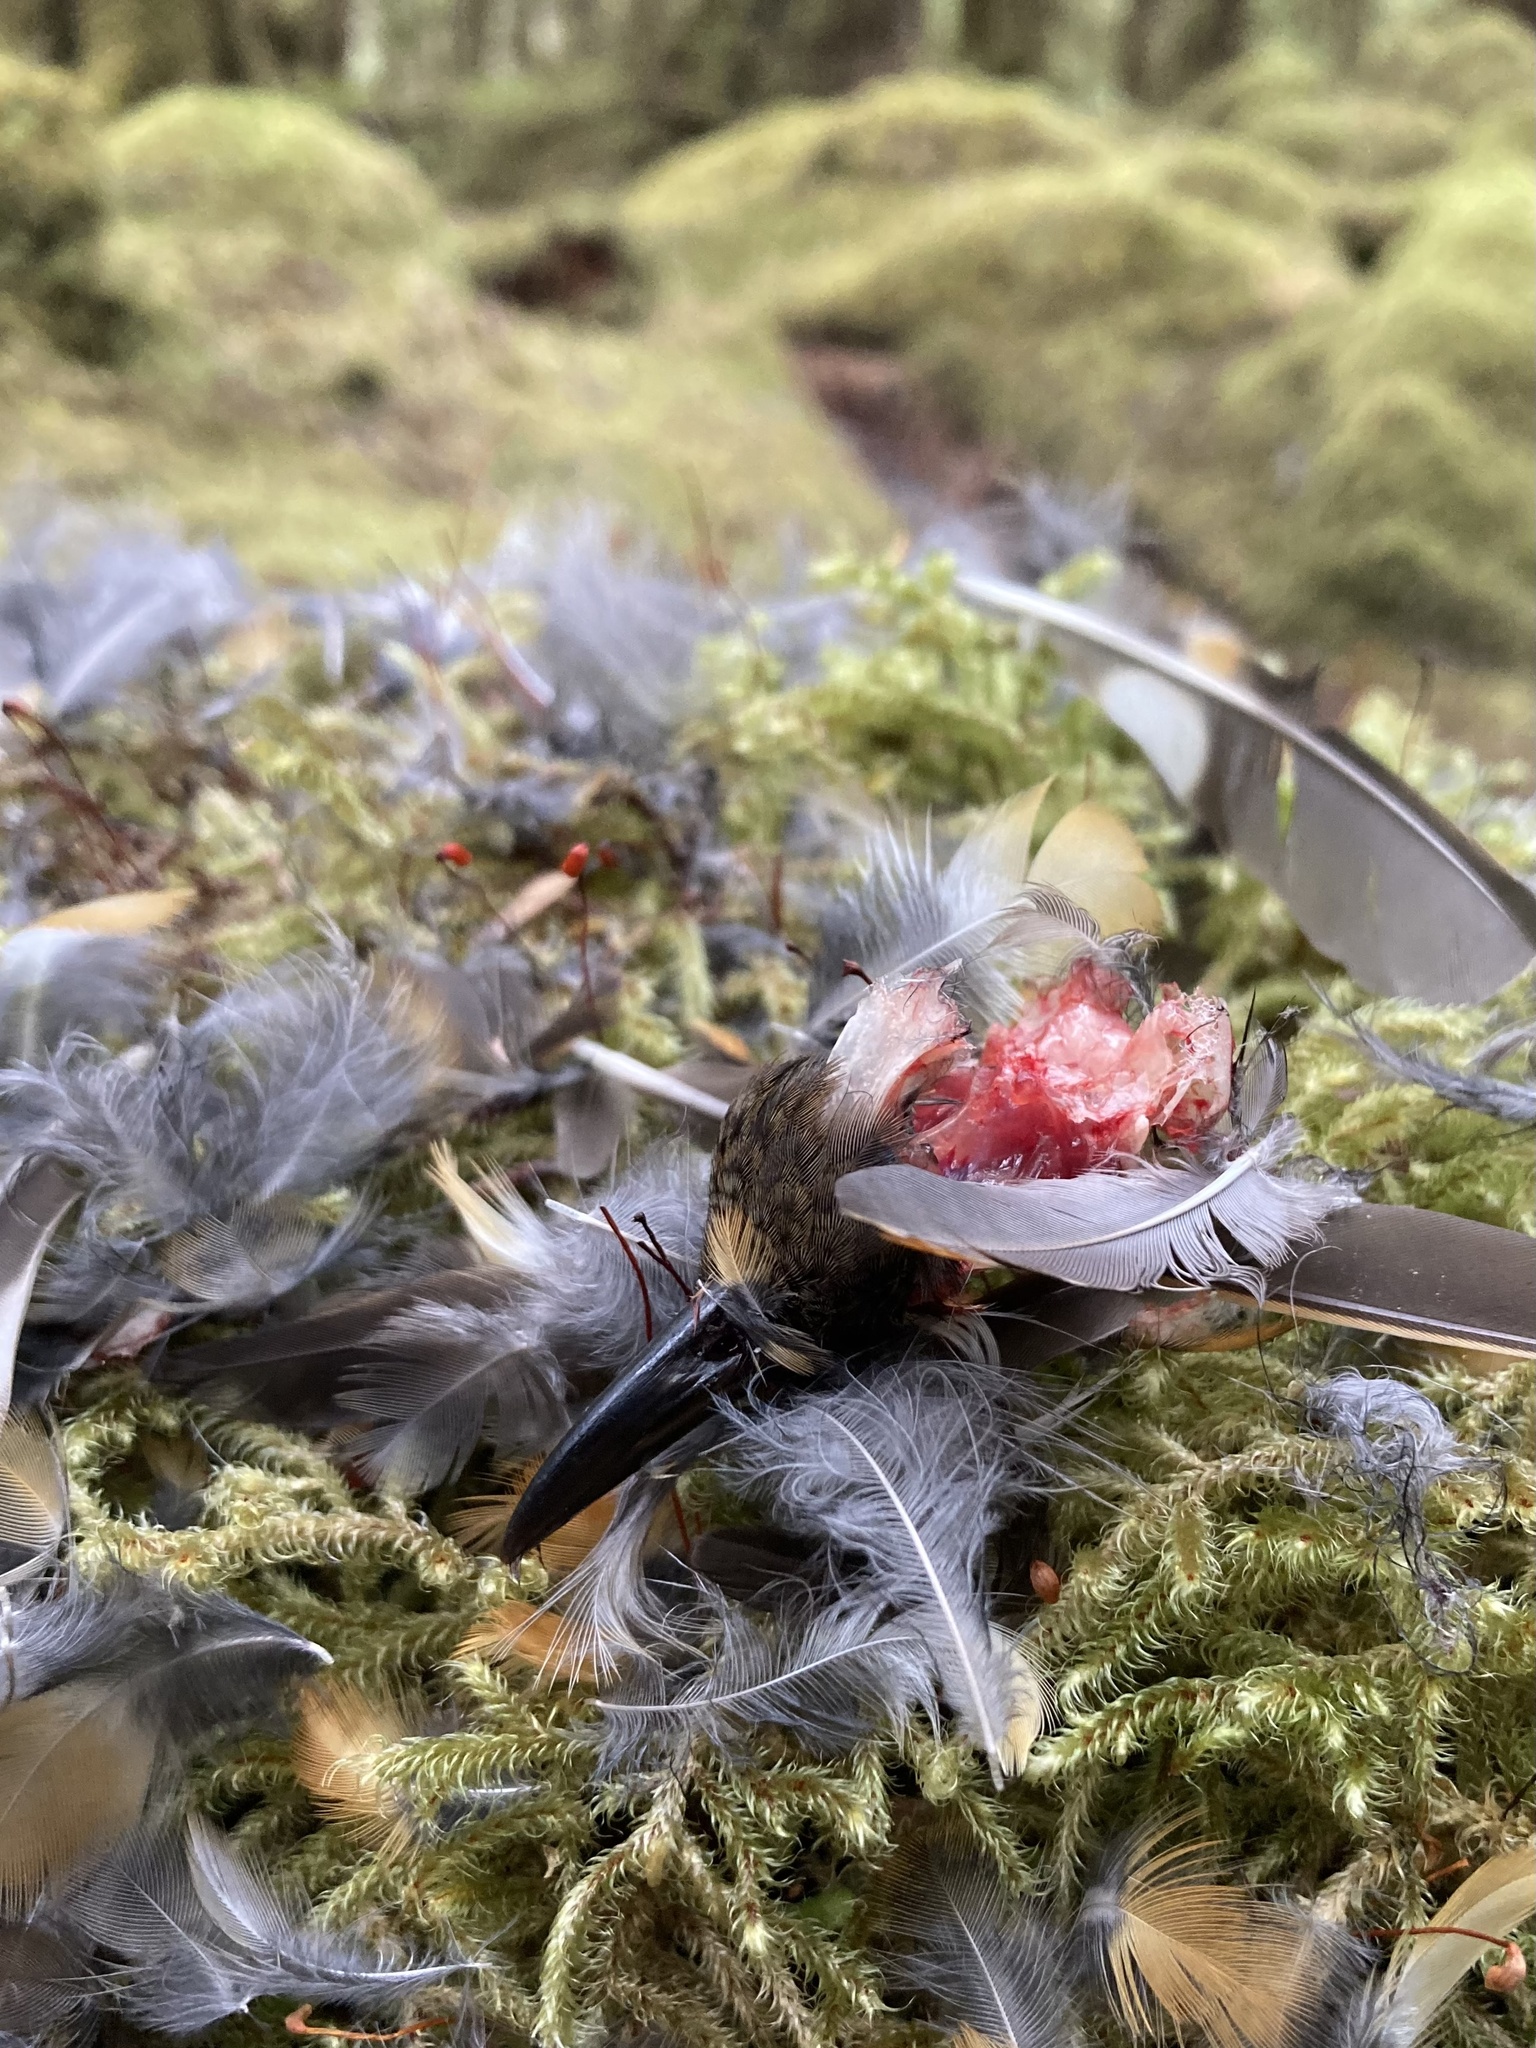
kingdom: Animalia
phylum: Chordata
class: Aves
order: Passeriformes
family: Turdidae
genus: Ixoreus
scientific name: Ixoreus naevius
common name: Varied thrush
